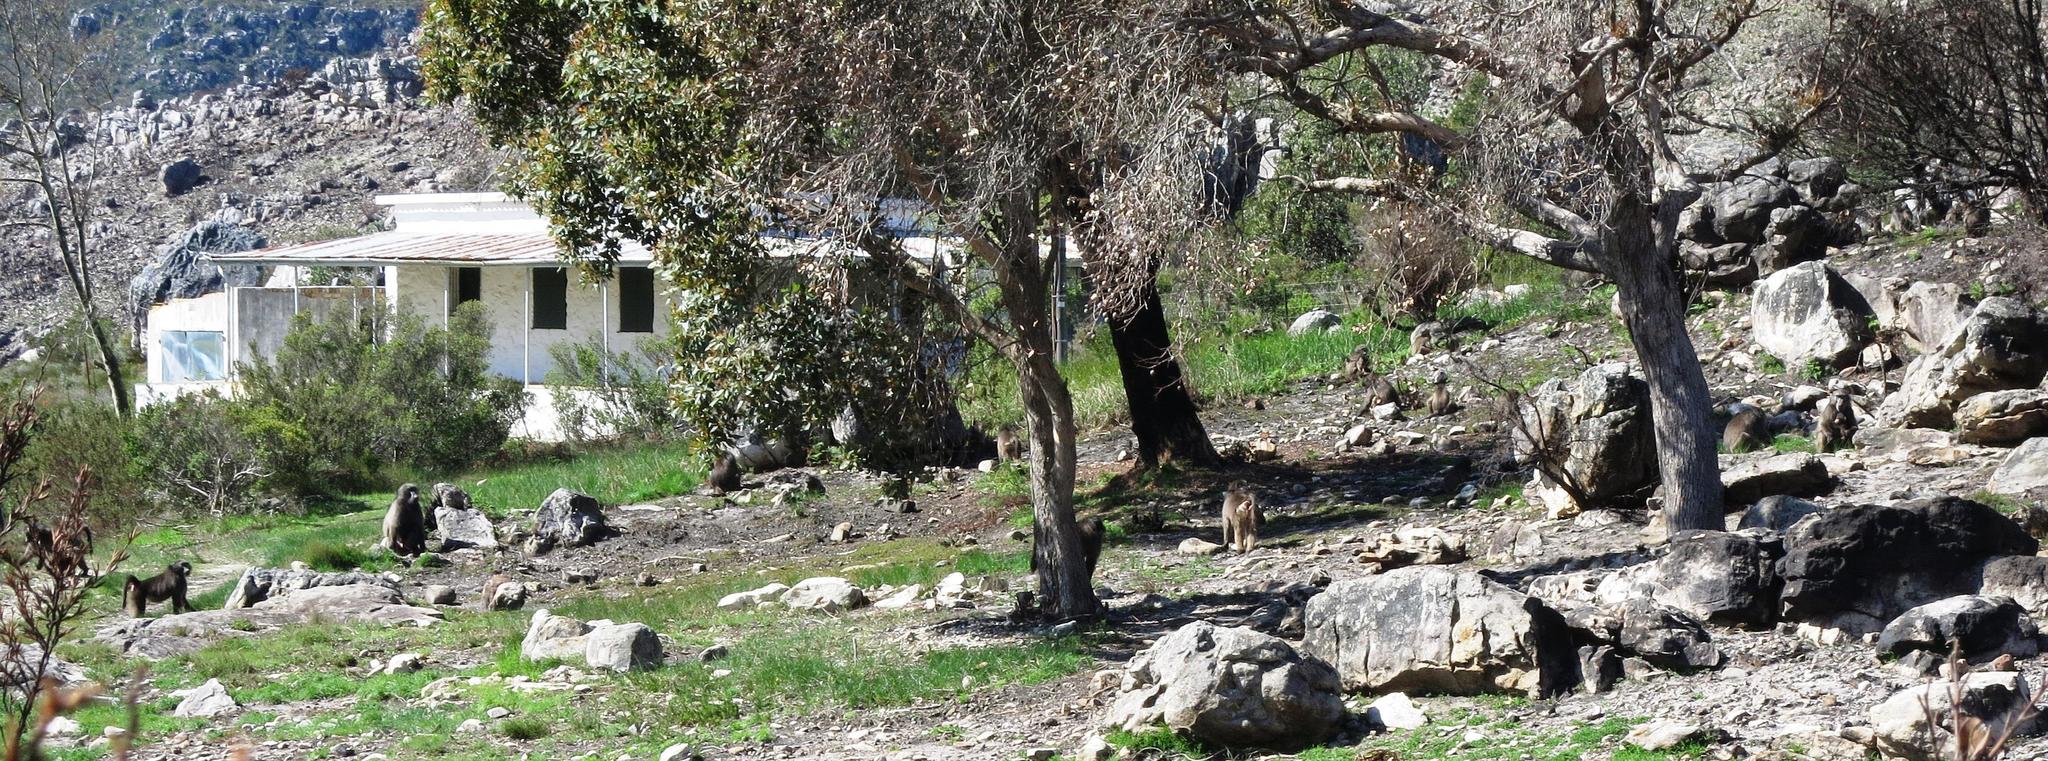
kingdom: Animalia
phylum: Chordata
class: Mammalia
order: Primates
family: Cercopithecidae
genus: Papio
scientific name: Papio ursinus
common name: Chacma baboon
